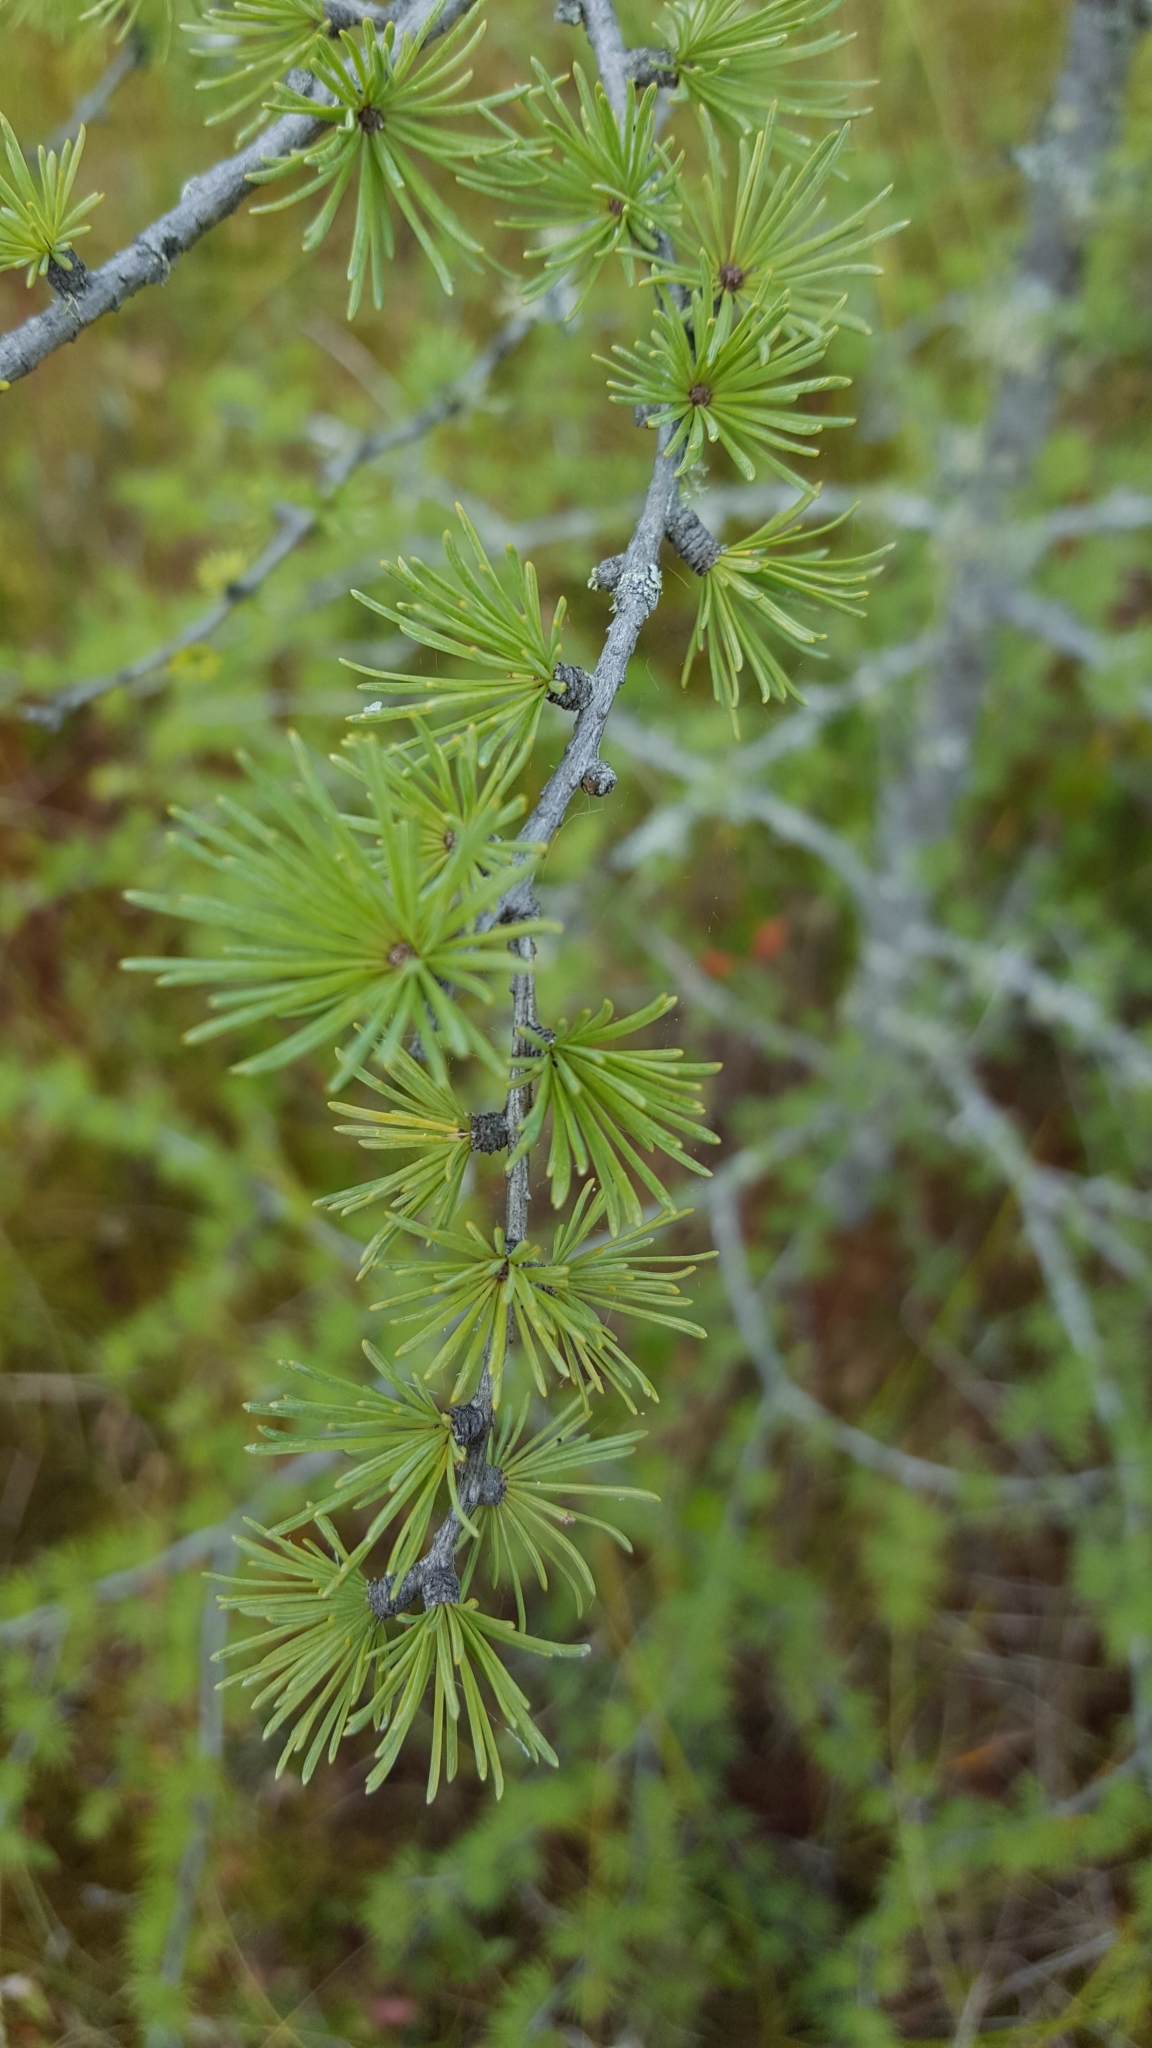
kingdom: Plantae
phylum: Tracheophyta
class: Pinopsida
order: Pinales
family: Pinaceae
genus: Larix
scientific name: Larix laricina
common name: American larch
